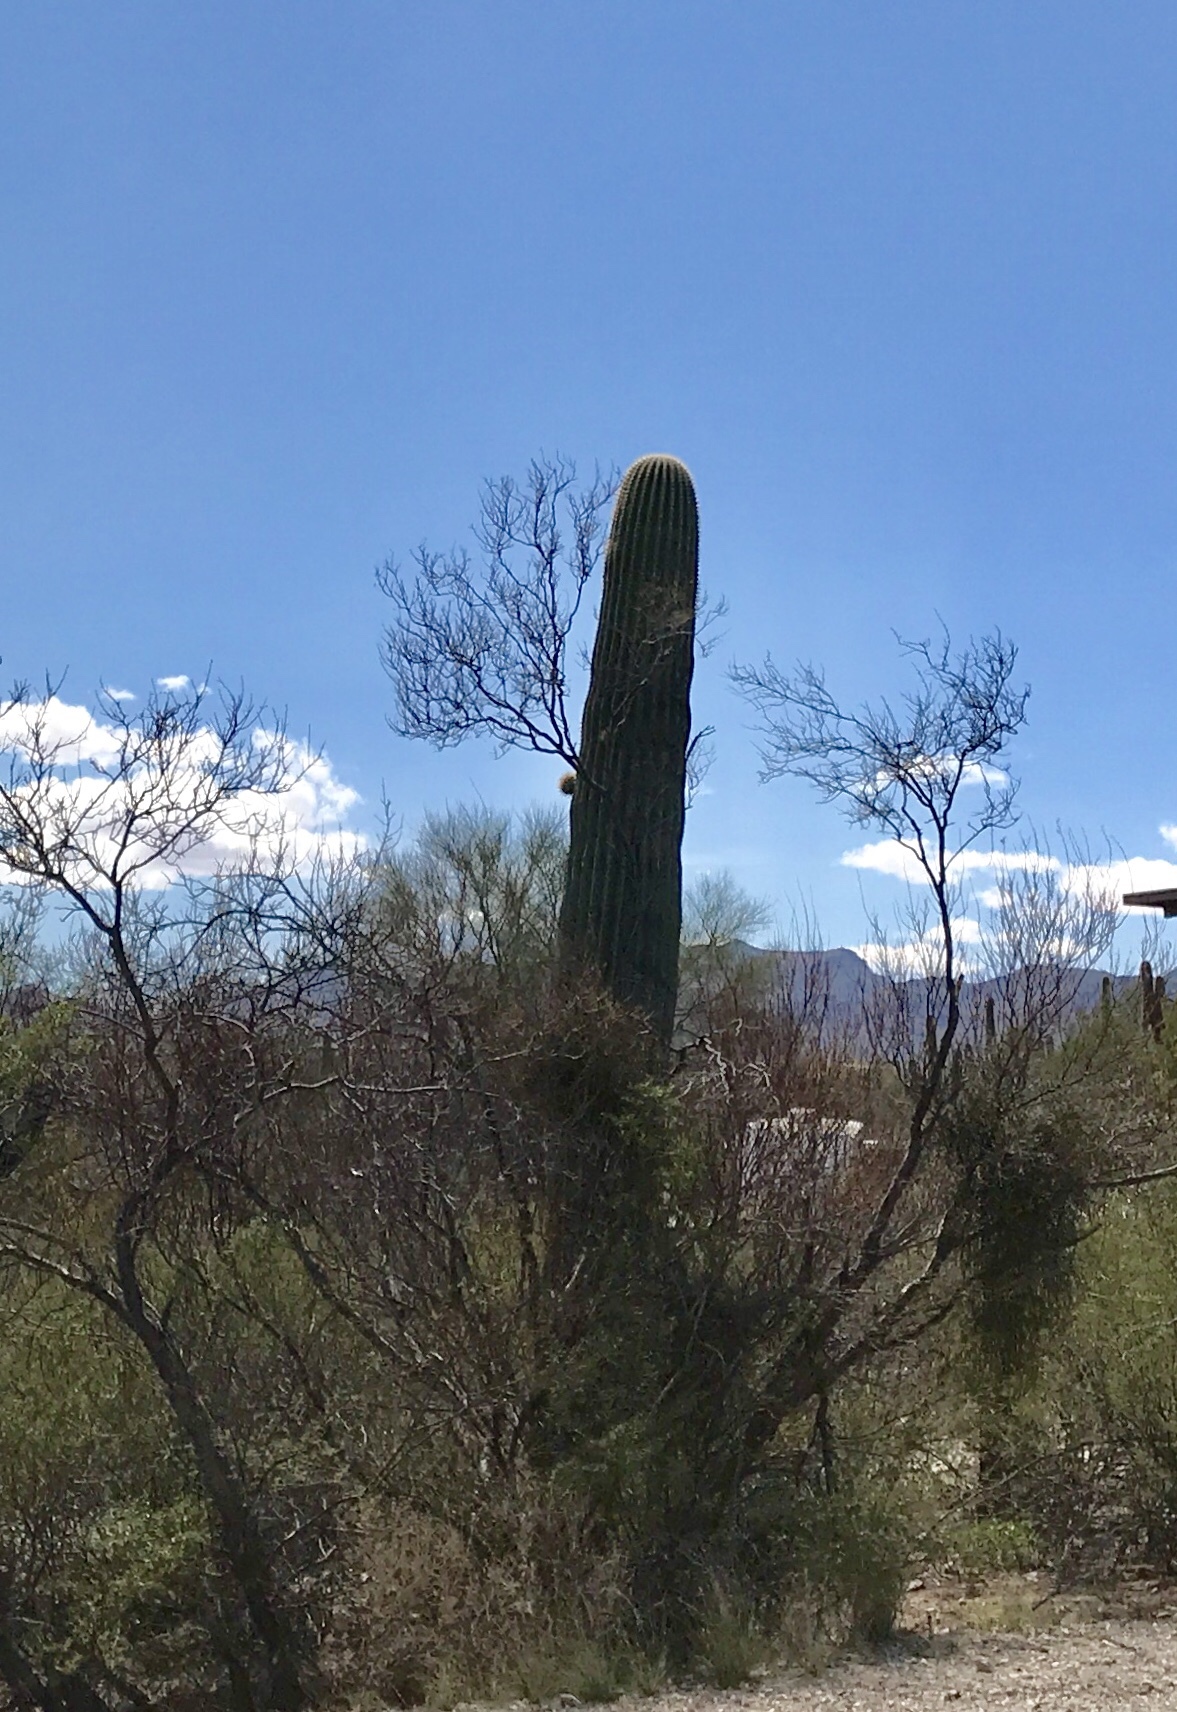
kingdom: Plantae
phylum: Tracheophyta
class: Magnoliopsida
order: Caryophyllales
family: Cactaceae
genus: Carnegiea
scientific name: Carnegiea gigantea
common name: Saguaro
